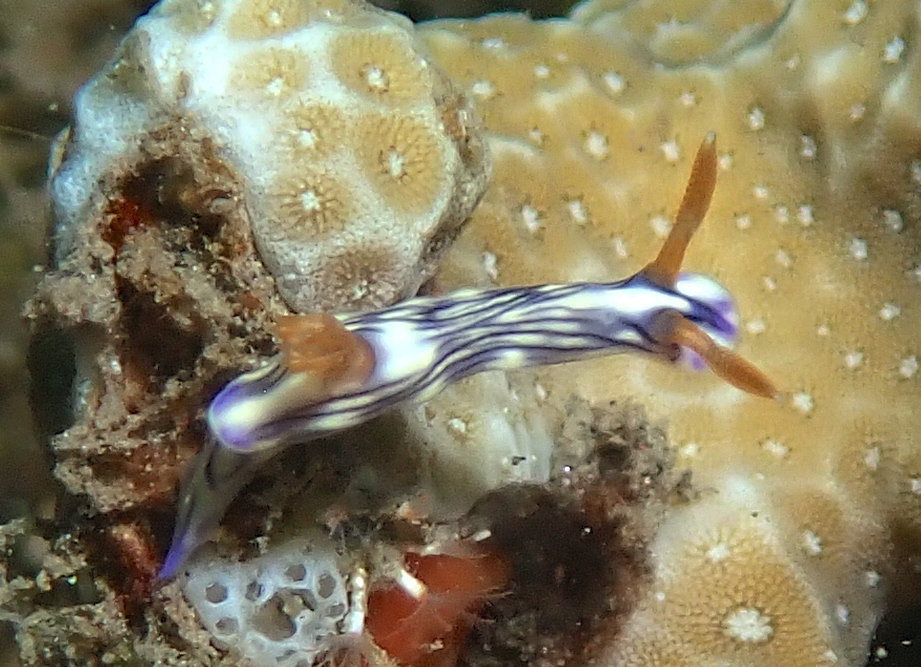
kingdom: Animalia
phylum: Mollusca
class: Gastropoda
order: Nudibranchia
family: Chromodorididae
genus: Hypselodoris
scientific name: Hypselodoris zephyra
